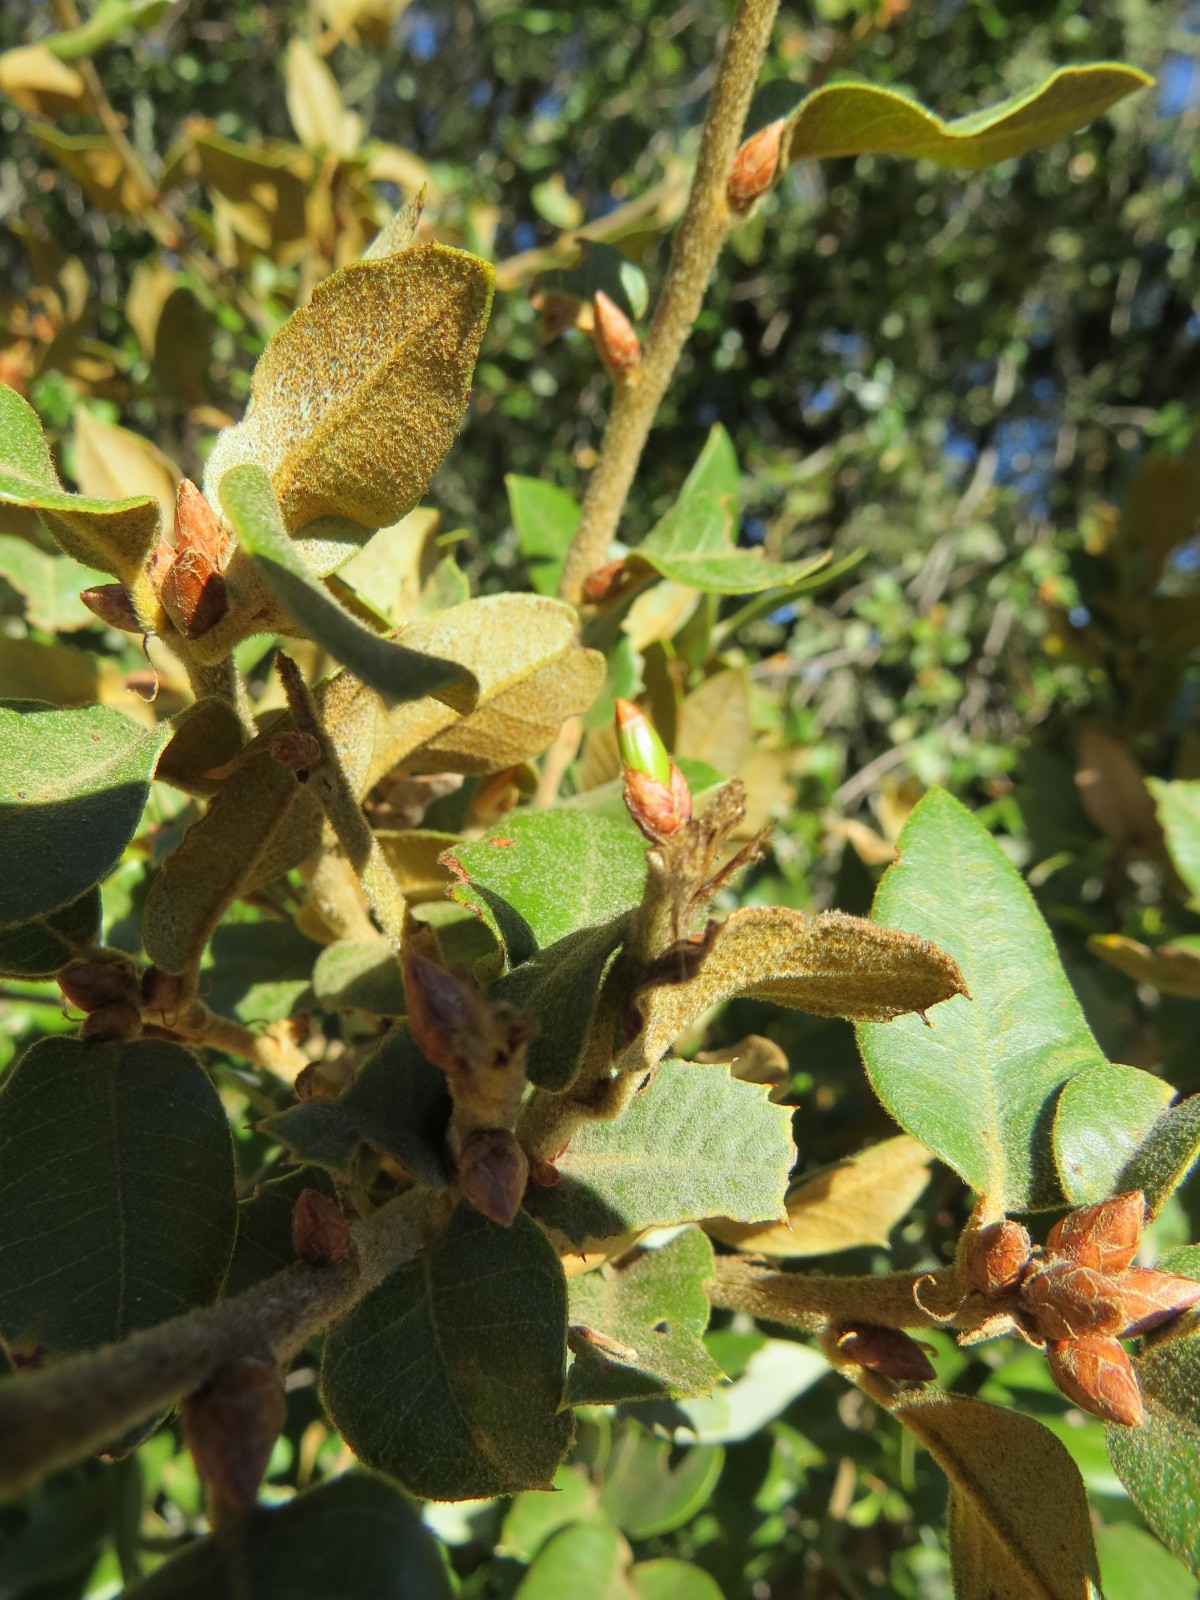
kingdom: Animalia
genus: Grahamstoneia
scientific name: Grahamstoneia humboldti
